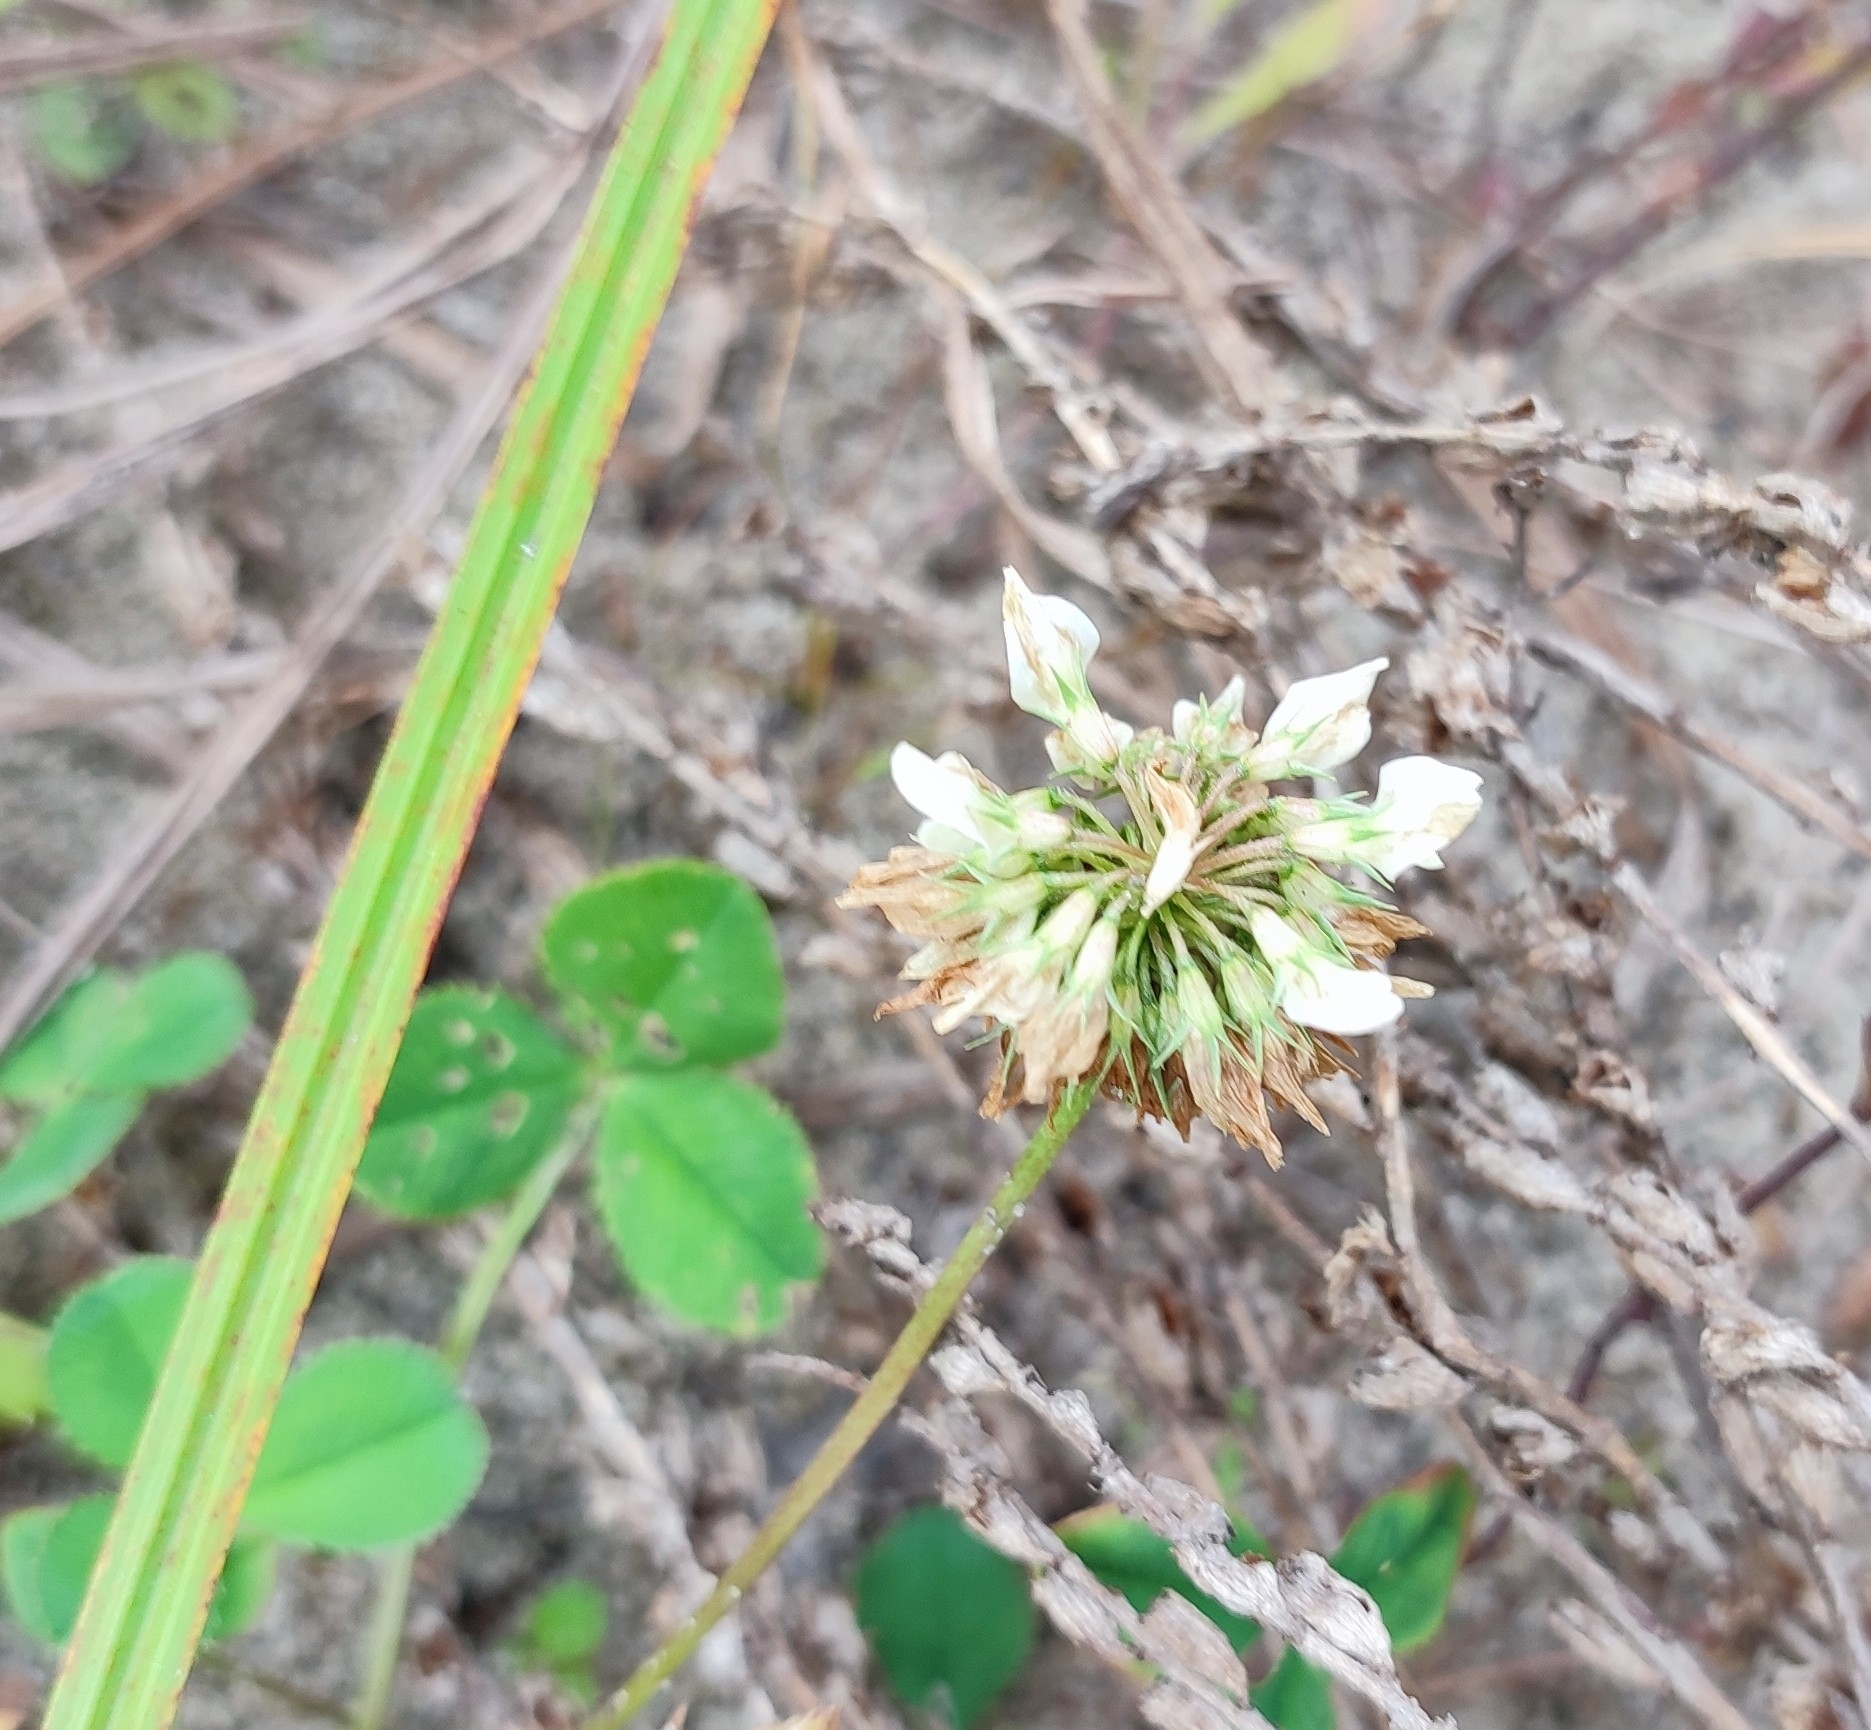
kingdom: Plantae
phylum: Tracheophyta
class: Magnoliopsida
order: Fabales
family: Fabaceae
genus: Trifolium
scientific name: Trifolium repens
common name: White clover
